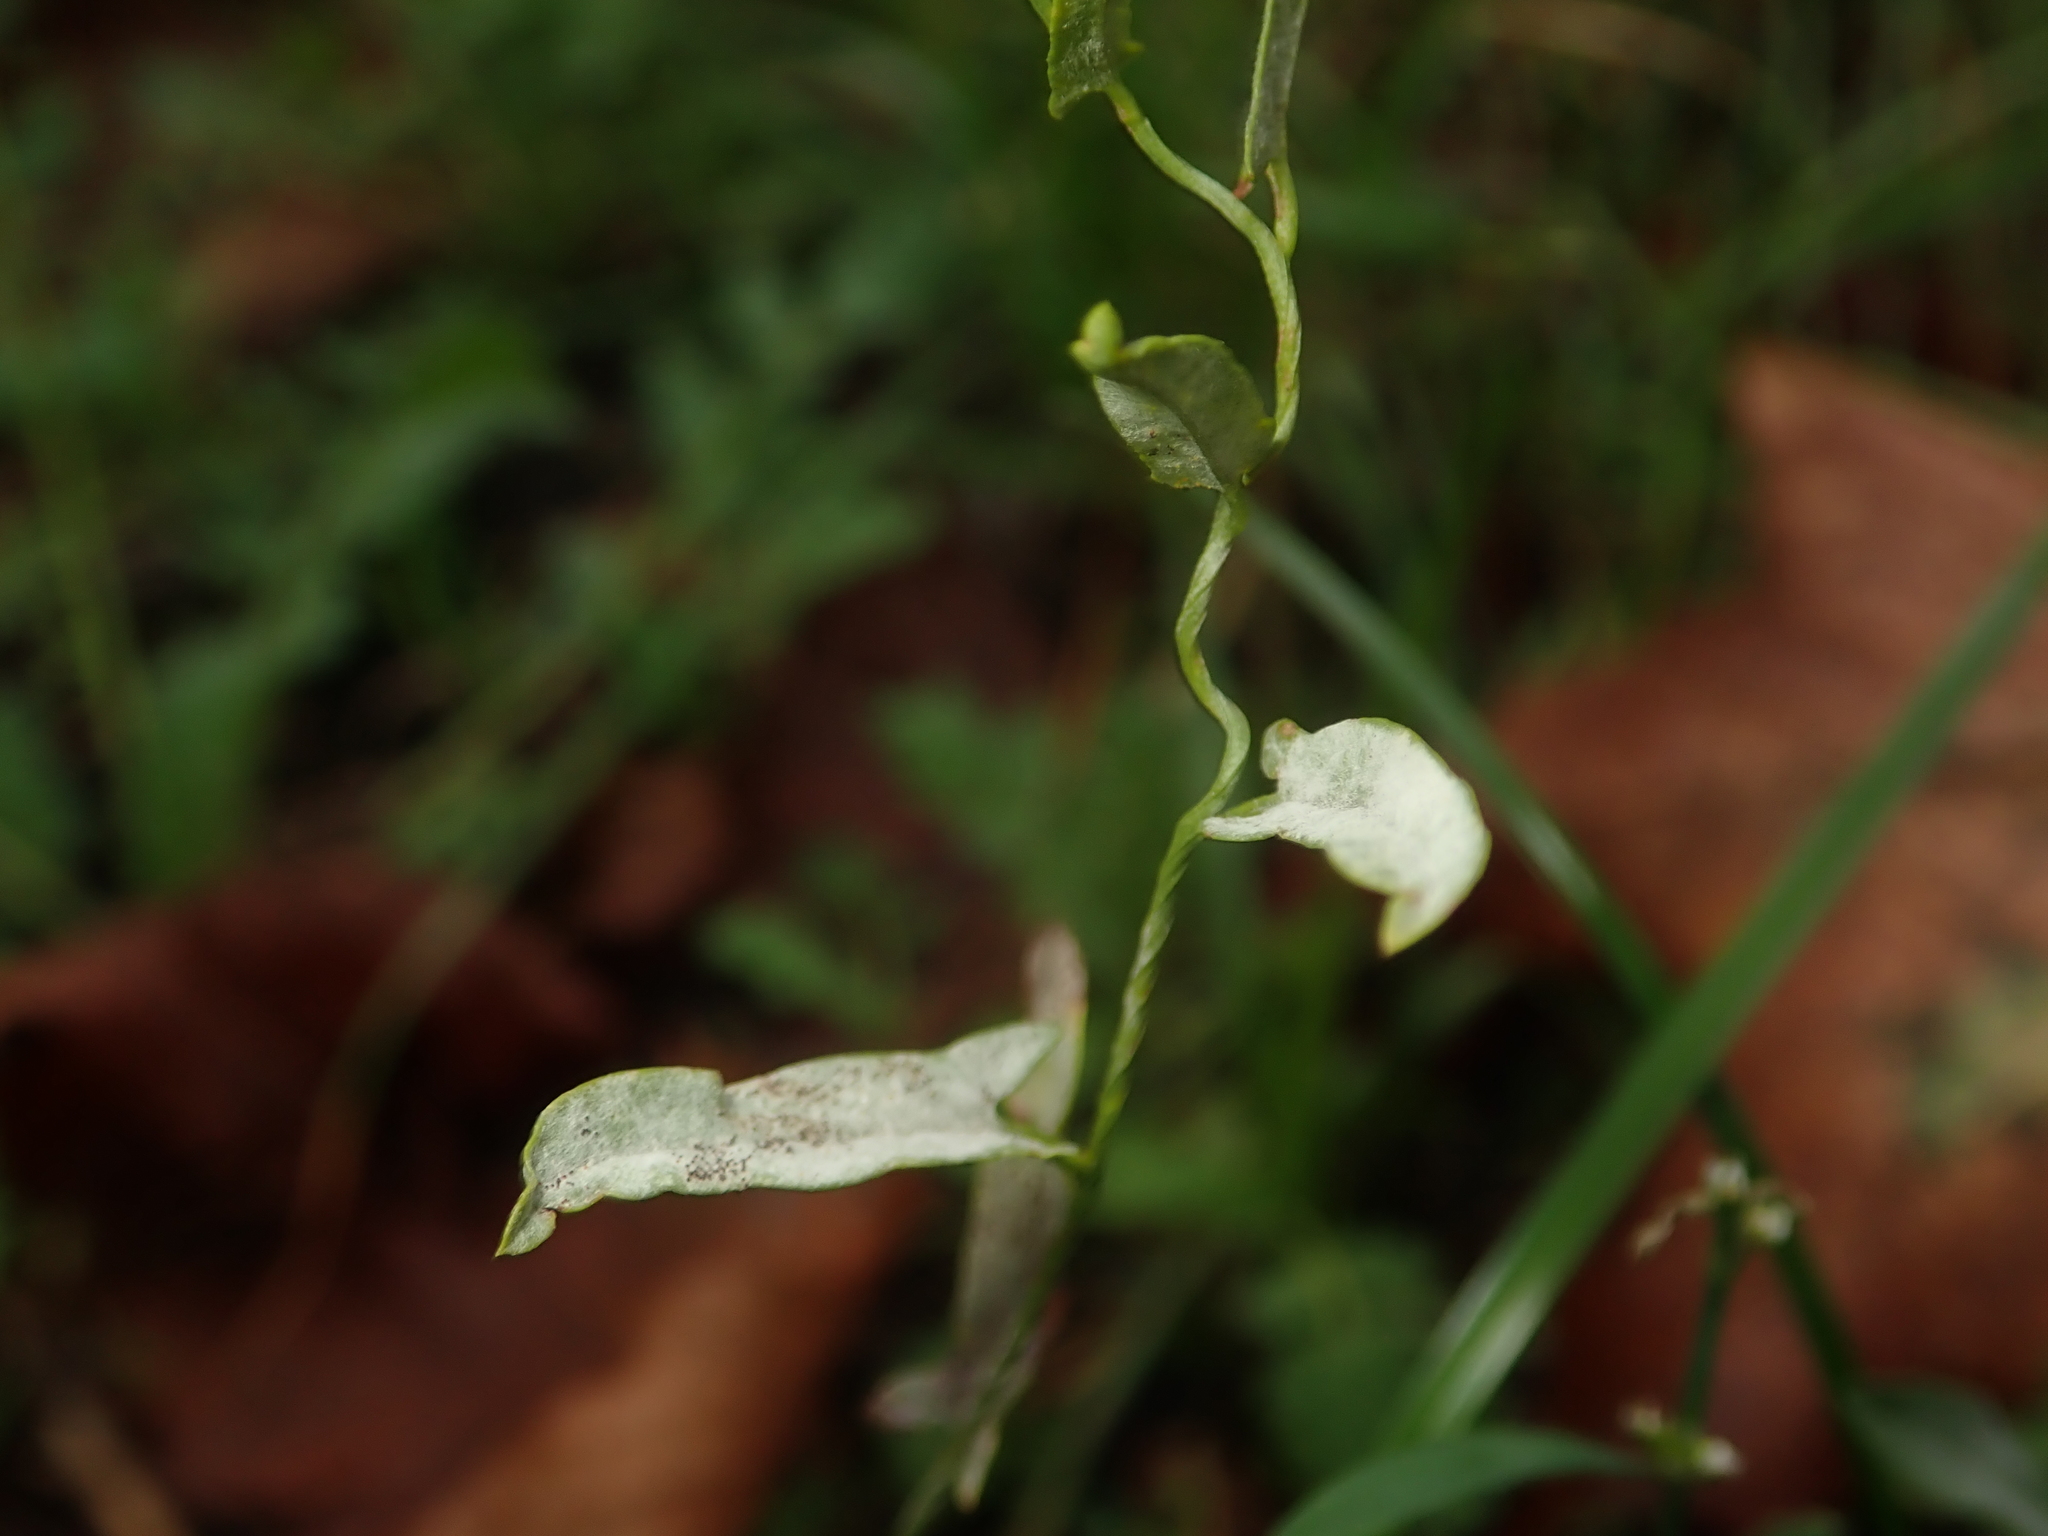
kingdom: Plantae
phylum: Tracheophyta
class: Magnoliopsida
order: Solanales
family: Convolvulaceae
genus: Convolvulus
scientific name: Convolvulus arvensis
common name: Field bindweed
